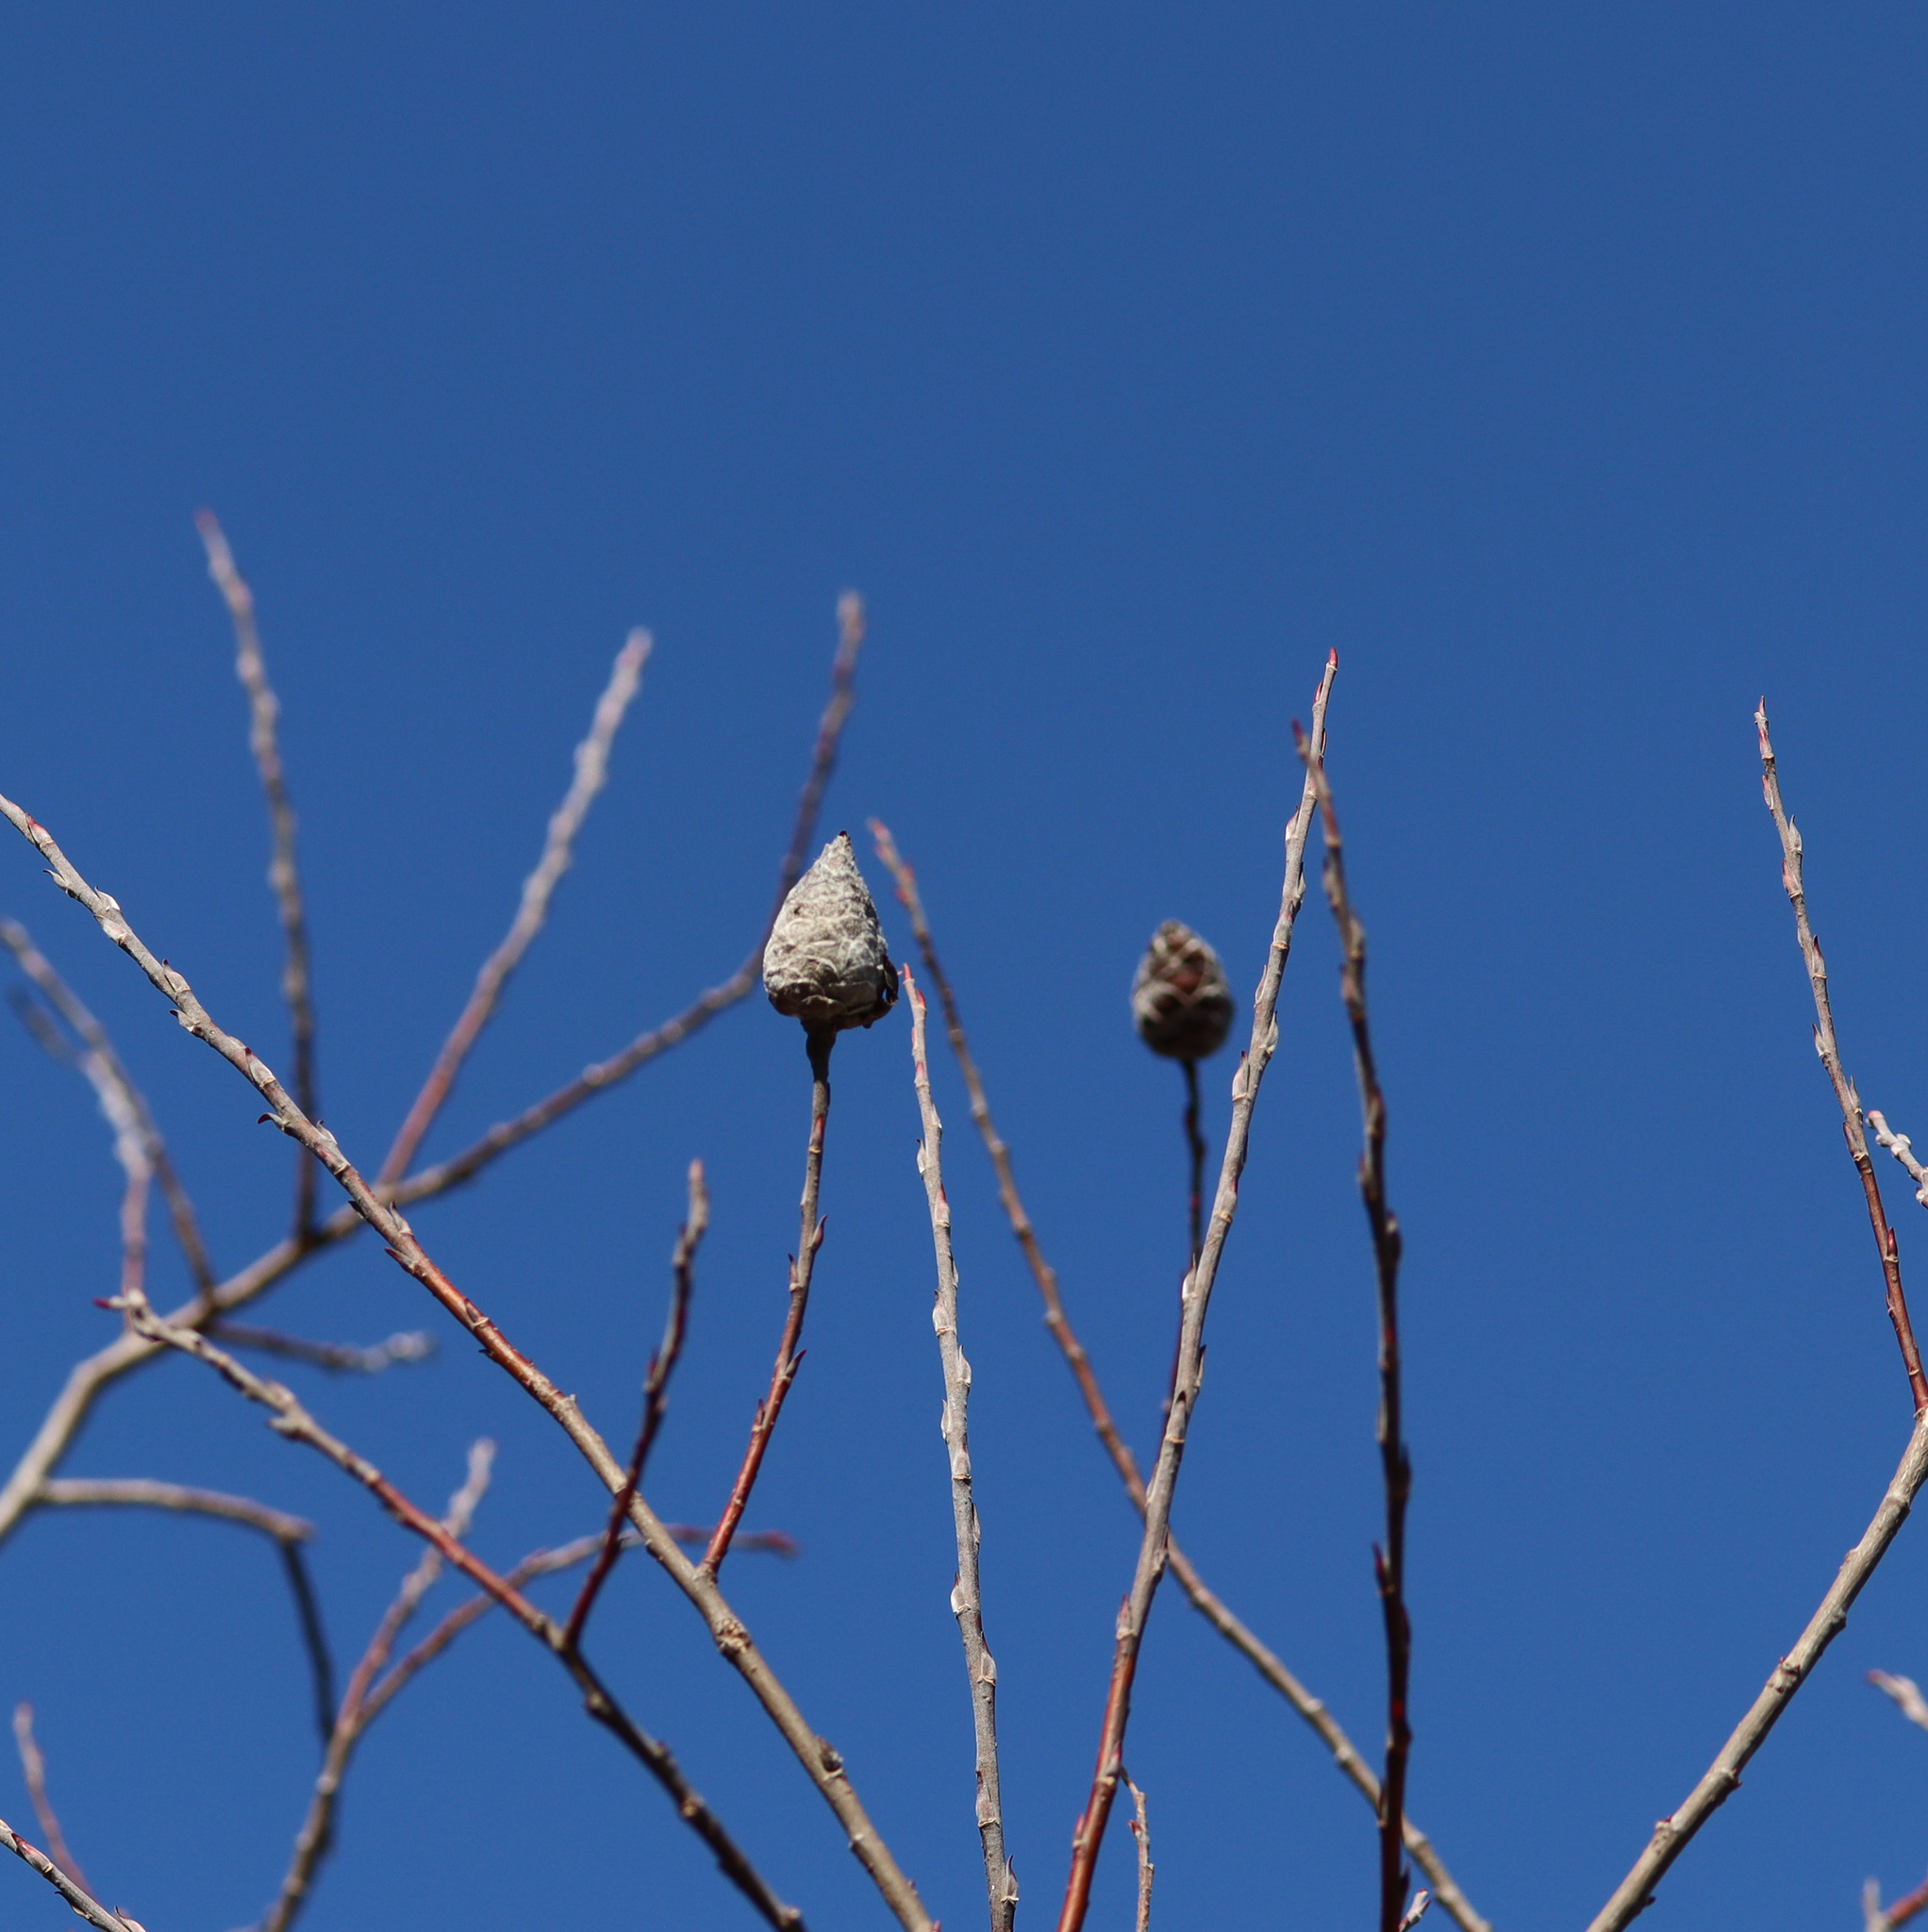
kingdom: Animalia
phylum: Arthropoda
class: Insecta
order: Diptera
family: Cecidomyiidae
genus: Rabdophaga
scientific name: Rabdophaga strobiloides
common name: Willow pinecone gall midge
